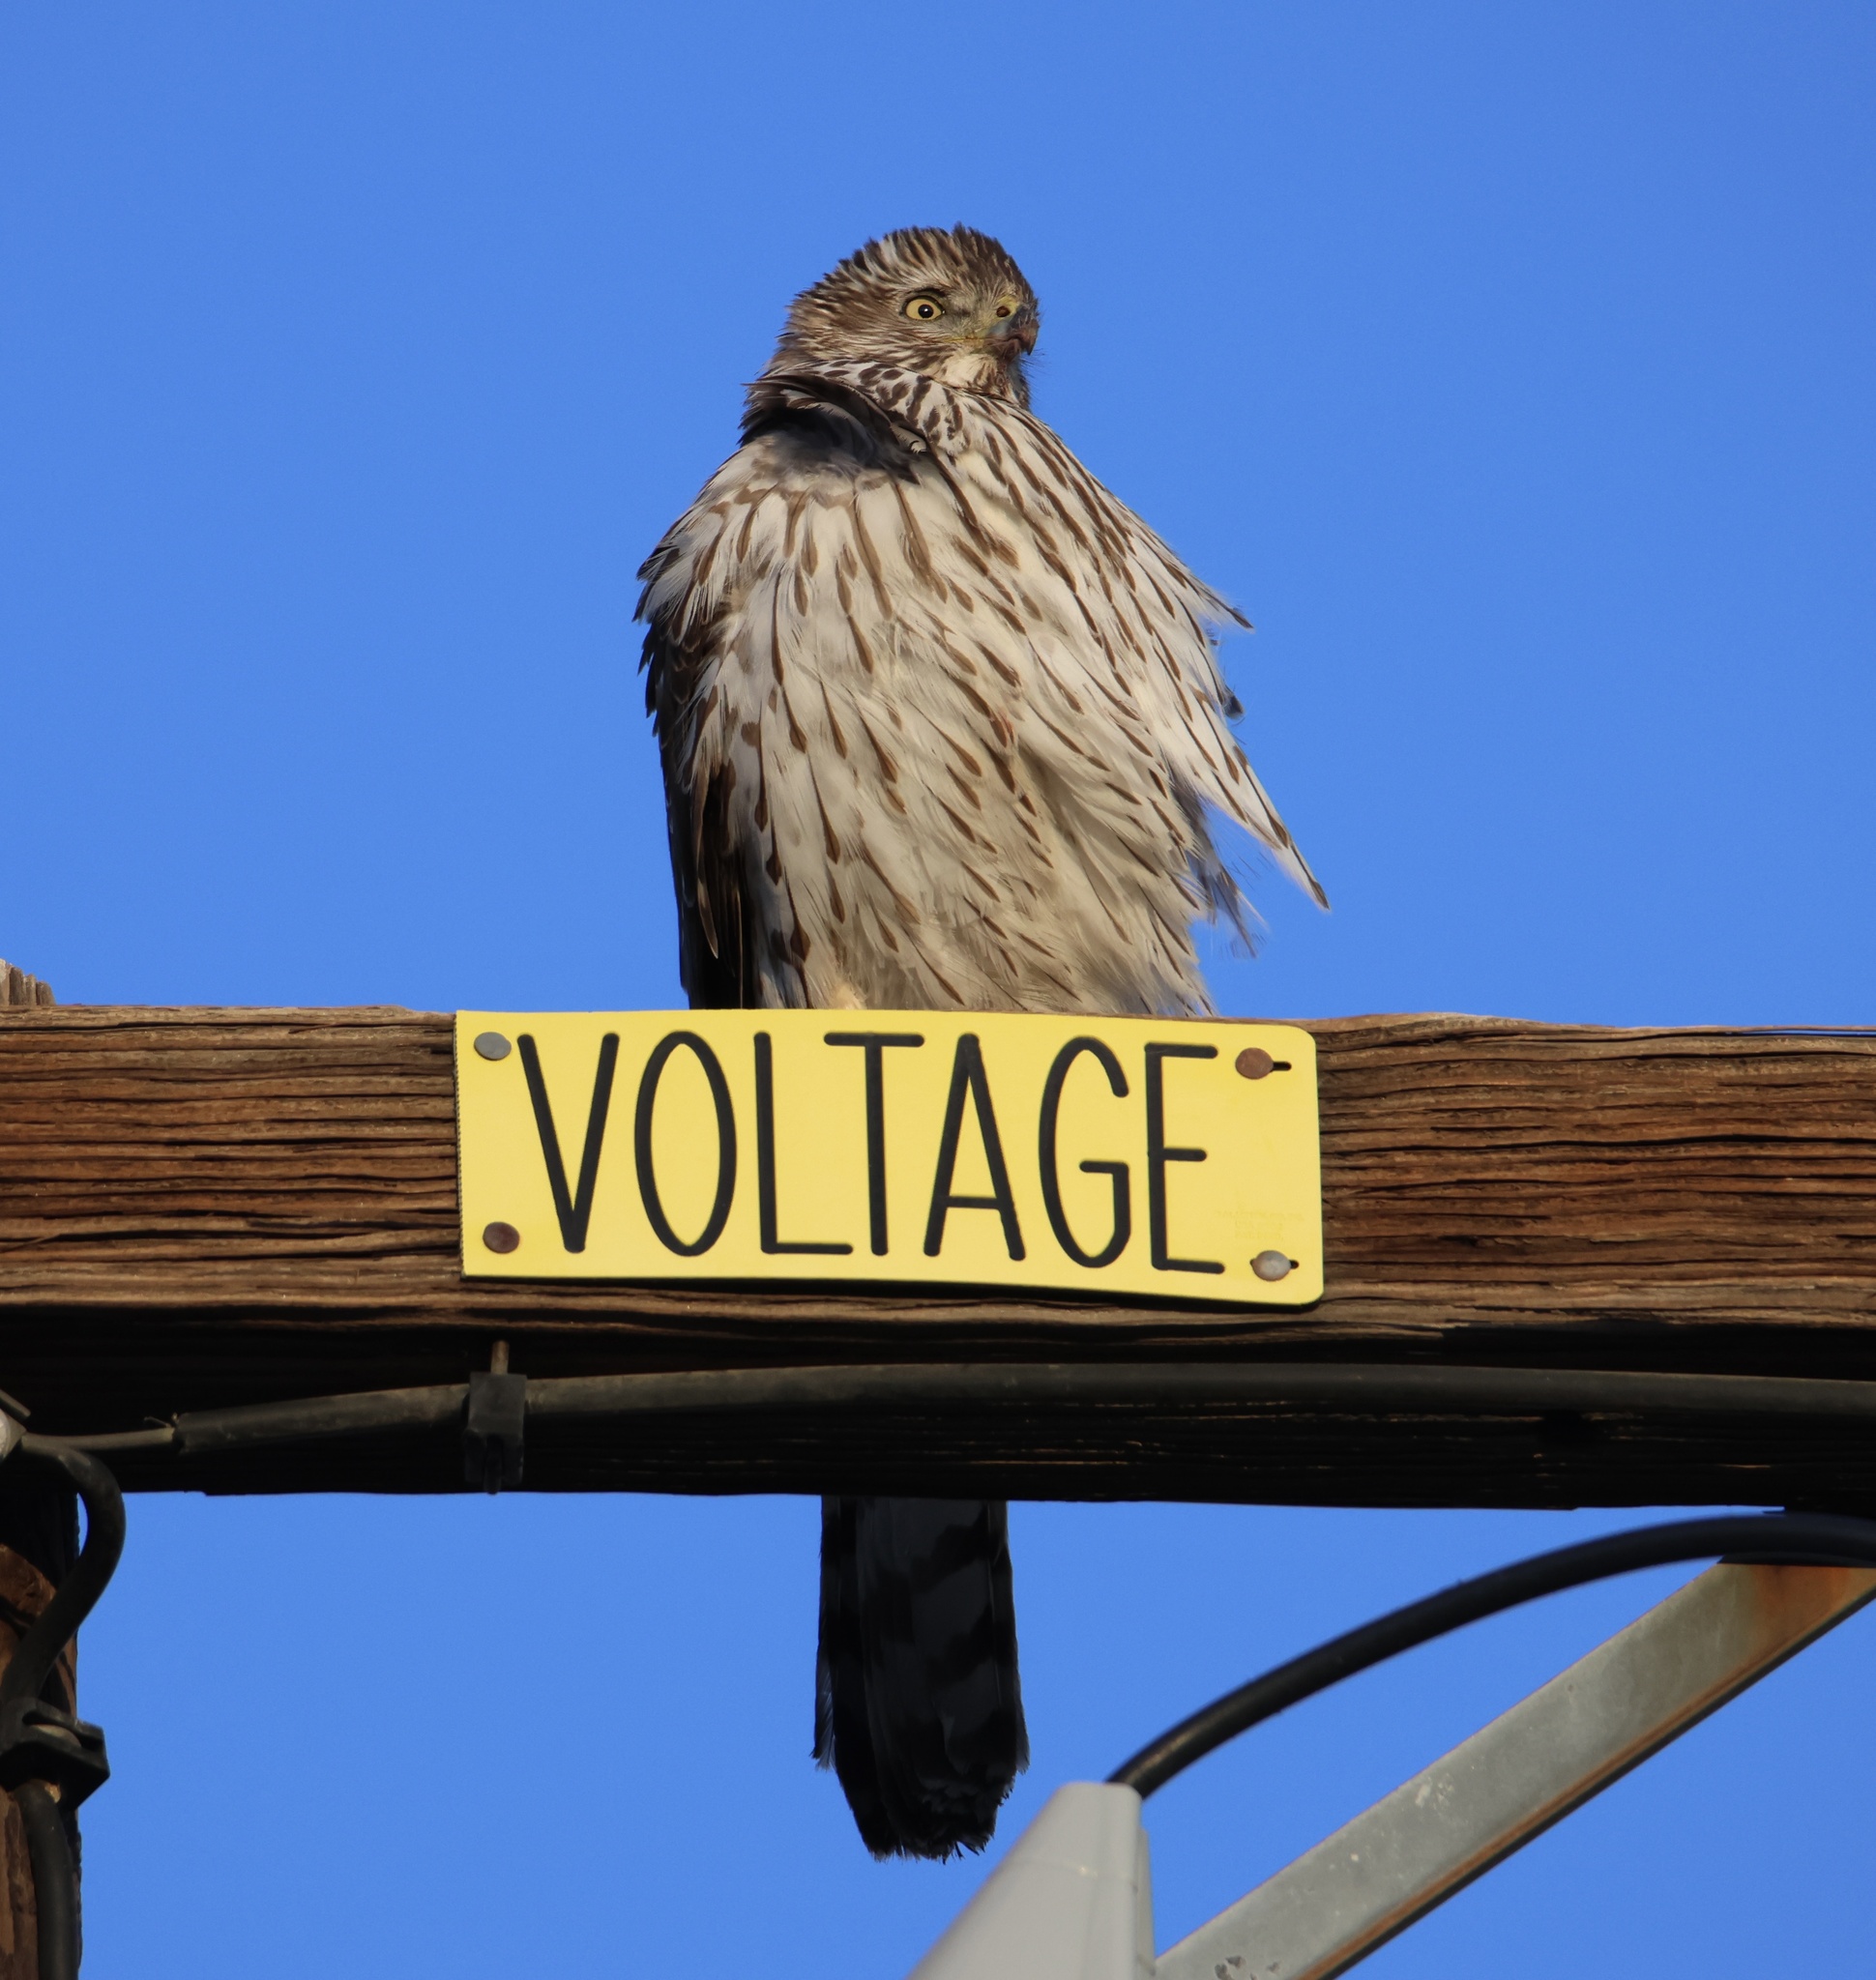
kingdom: Animalia
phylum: Chordata
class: Aves
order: Accipitriformes
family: Accipitridae
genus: Accipiter
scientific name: Accipiter cooperii
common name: Cooper's hawk
